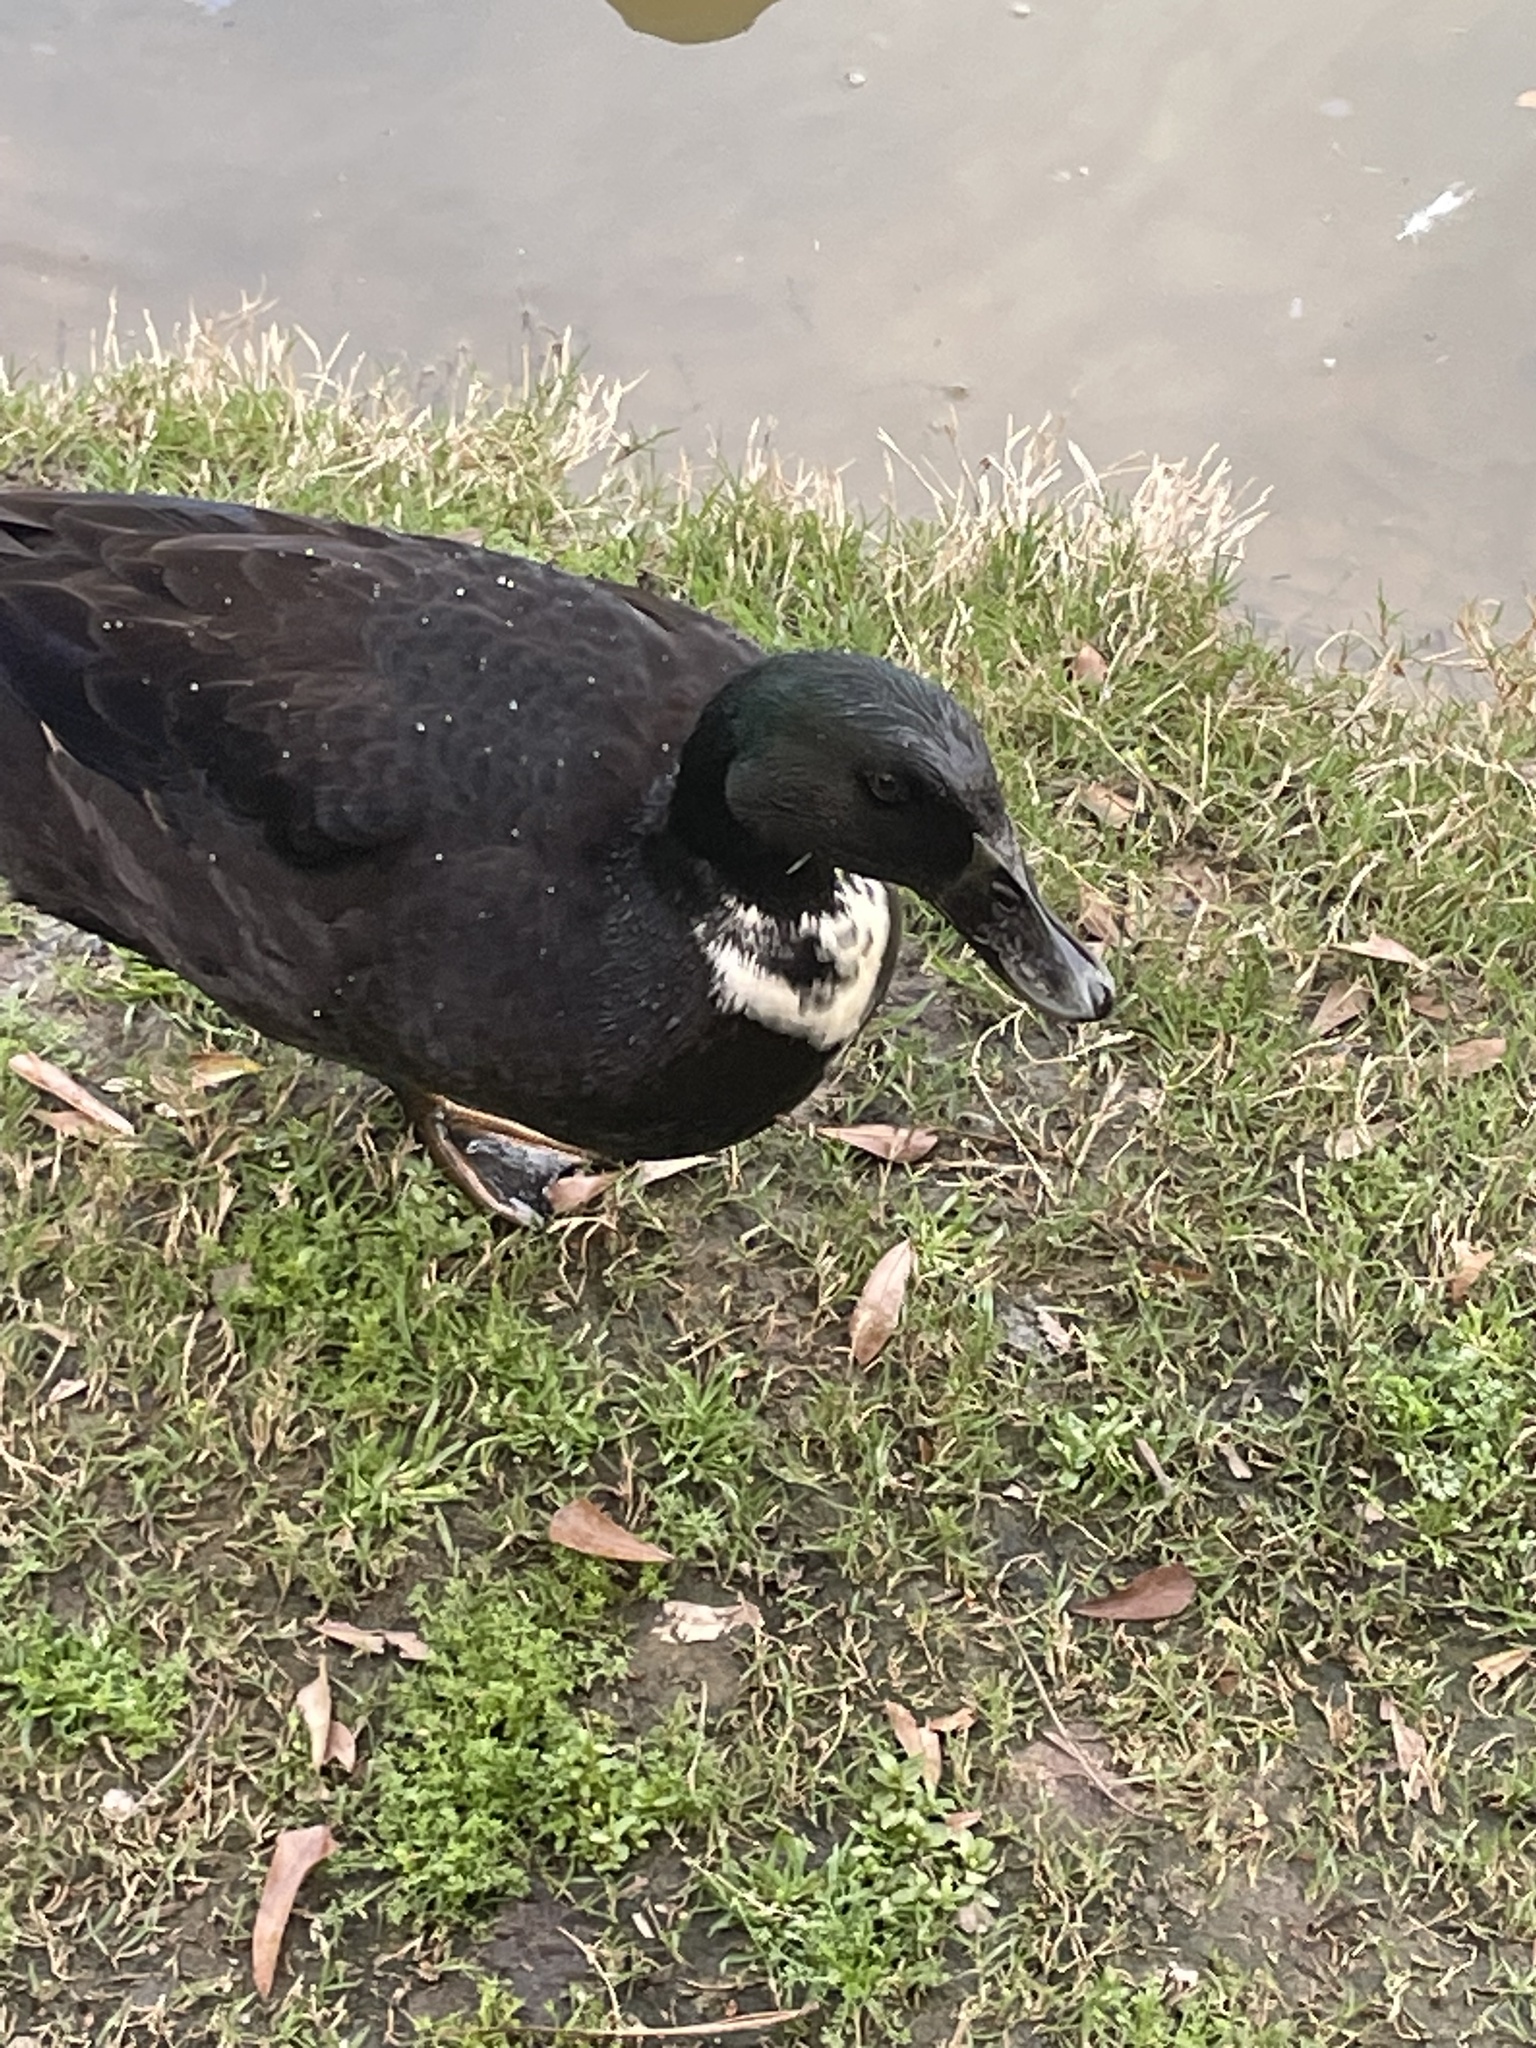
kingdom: Animalia
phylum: Chordata
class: Aves
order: Anseriformes
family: Anatidae
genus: Anas
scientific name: Anas platyrhynchos
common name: Mallard
